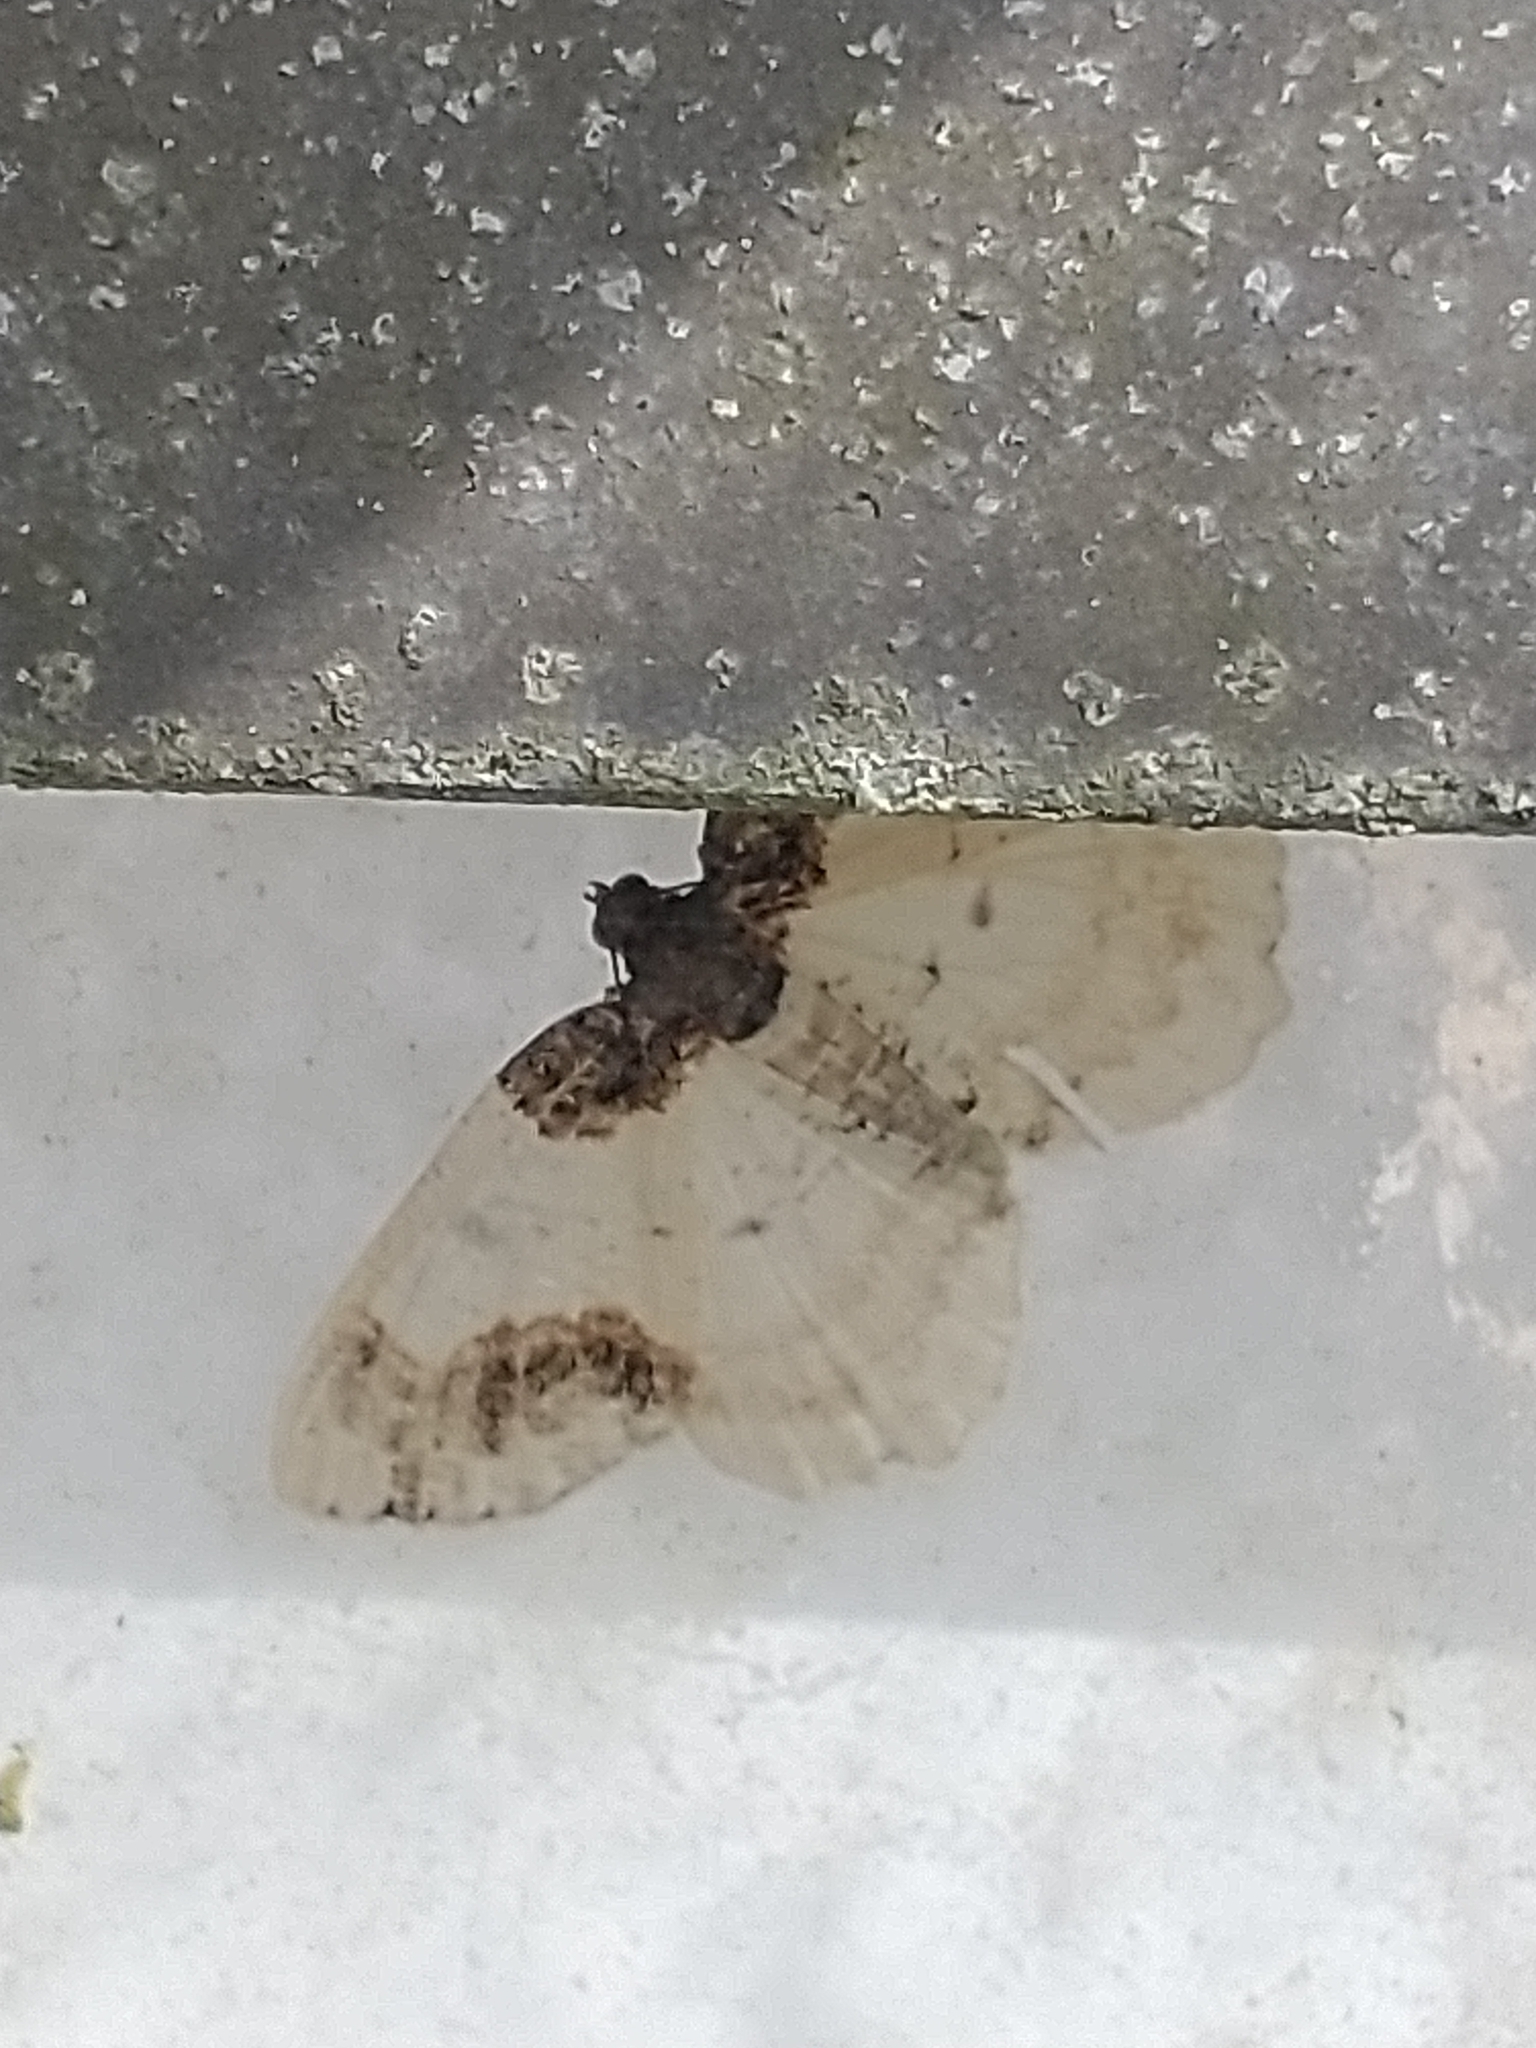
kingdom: Animalia
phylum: Arthropoda
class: Insecta
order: Lepidoptera
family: Geometridae
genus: Ligdia
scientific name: Ligdia adustata
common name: Scorched carpet
